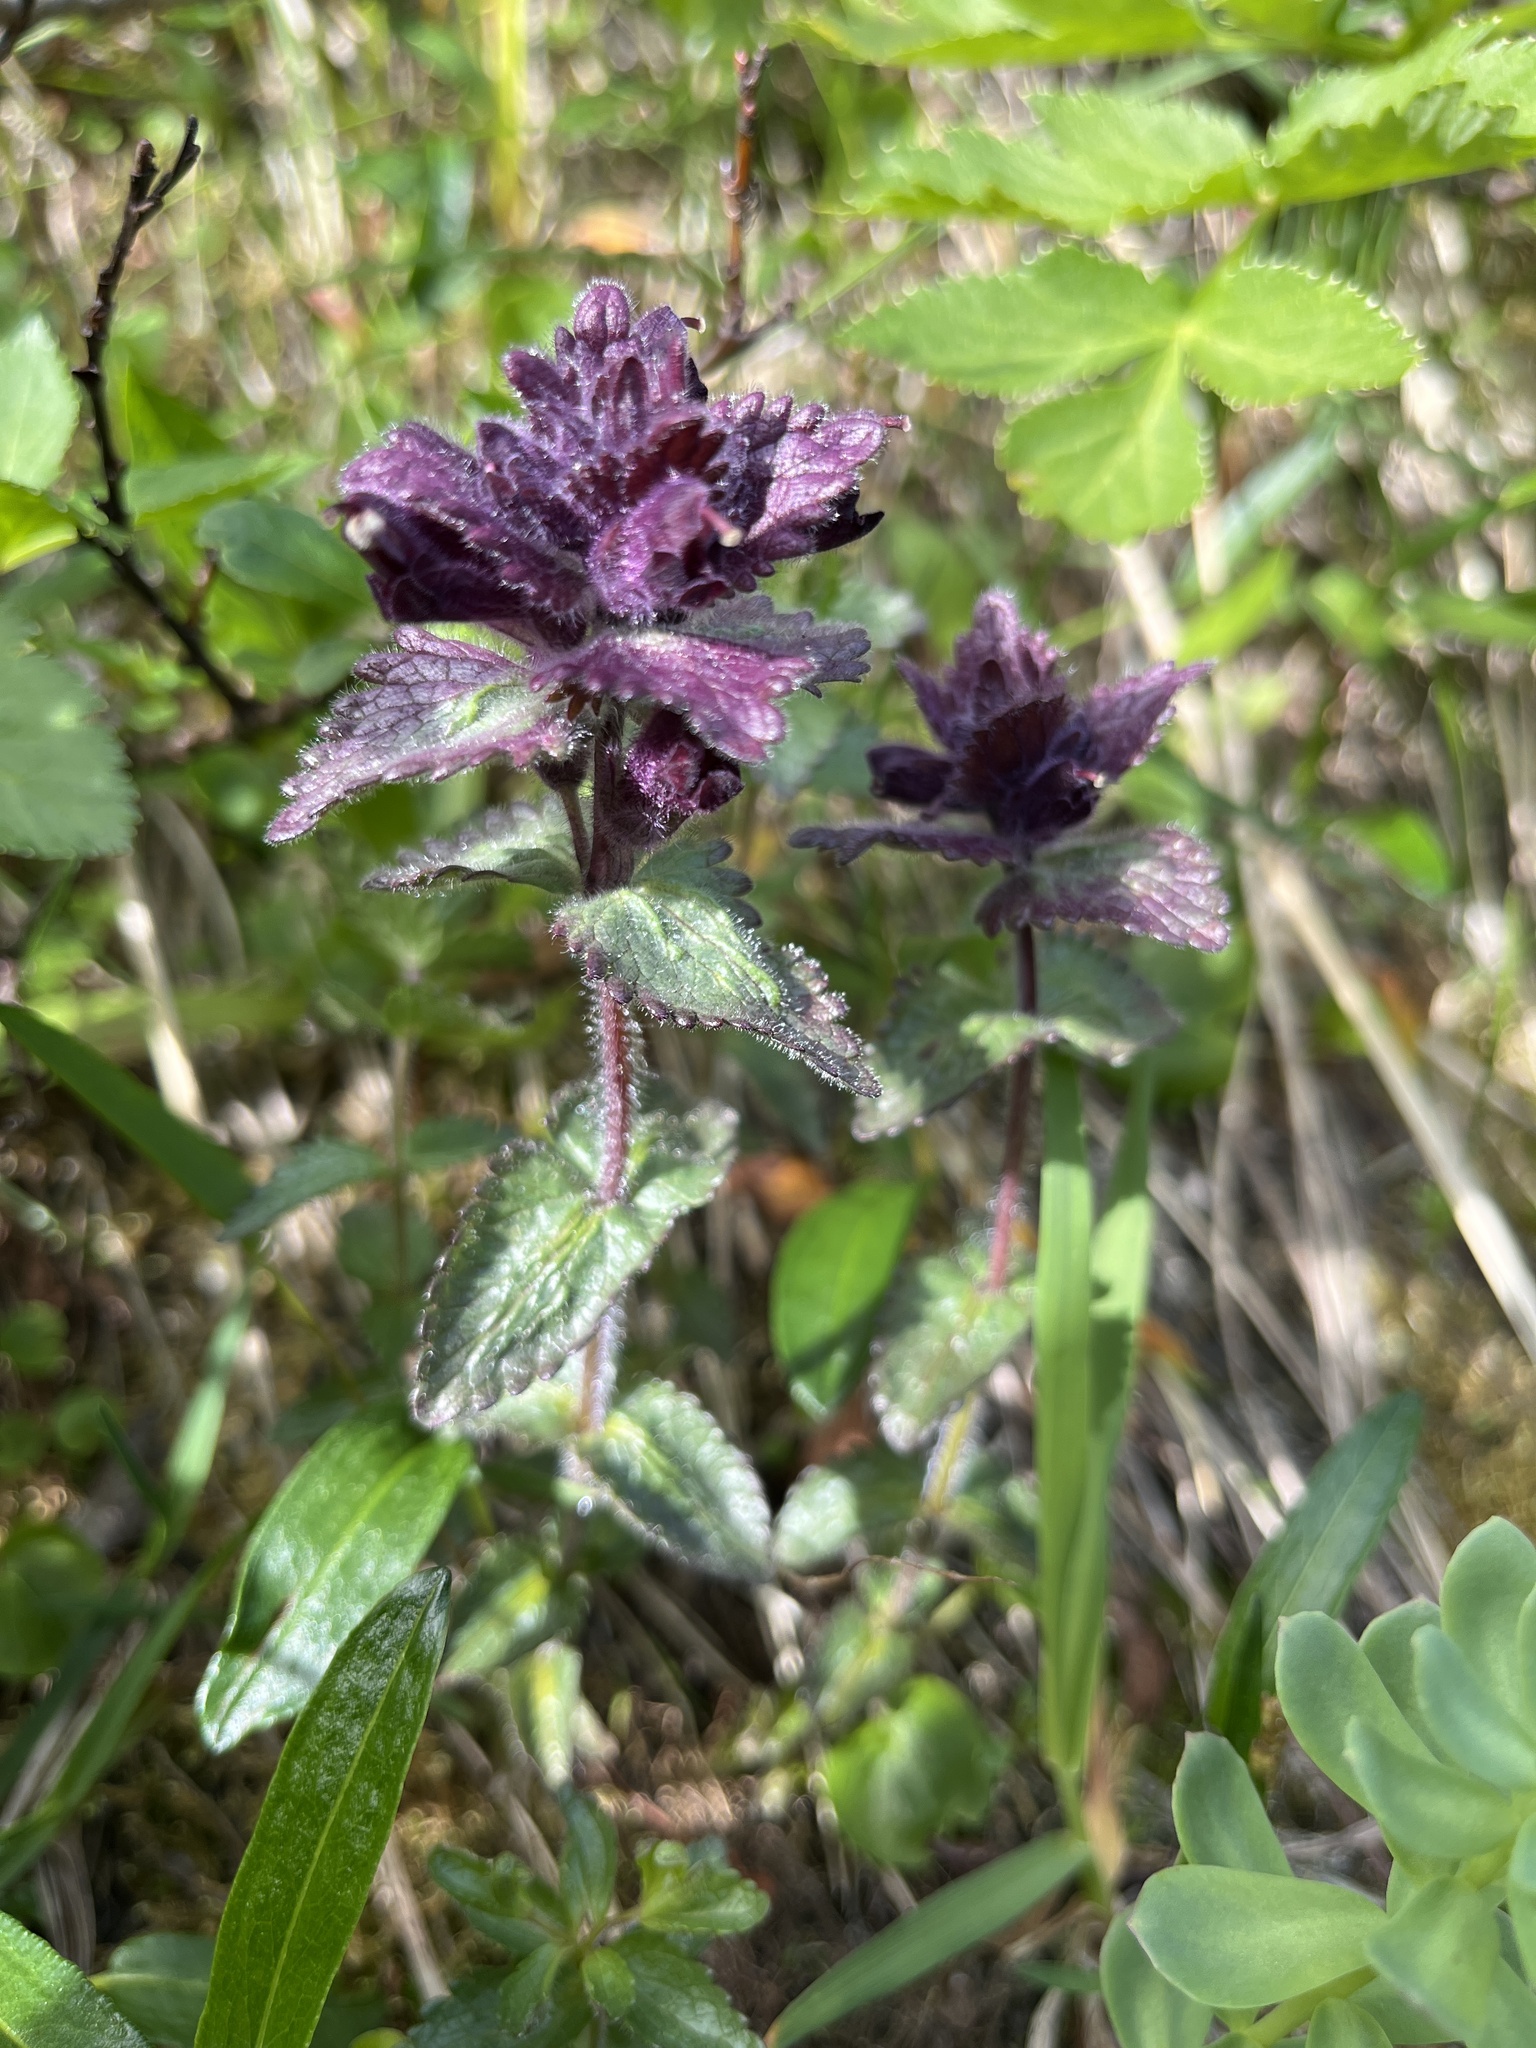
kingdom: Plantae
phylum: Tracheophyta
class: Magnoliopsida
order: Lamiales
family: Orobanchaceae
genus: Bartsia
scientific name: Bartsia alpina
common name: Alpine bartsia
